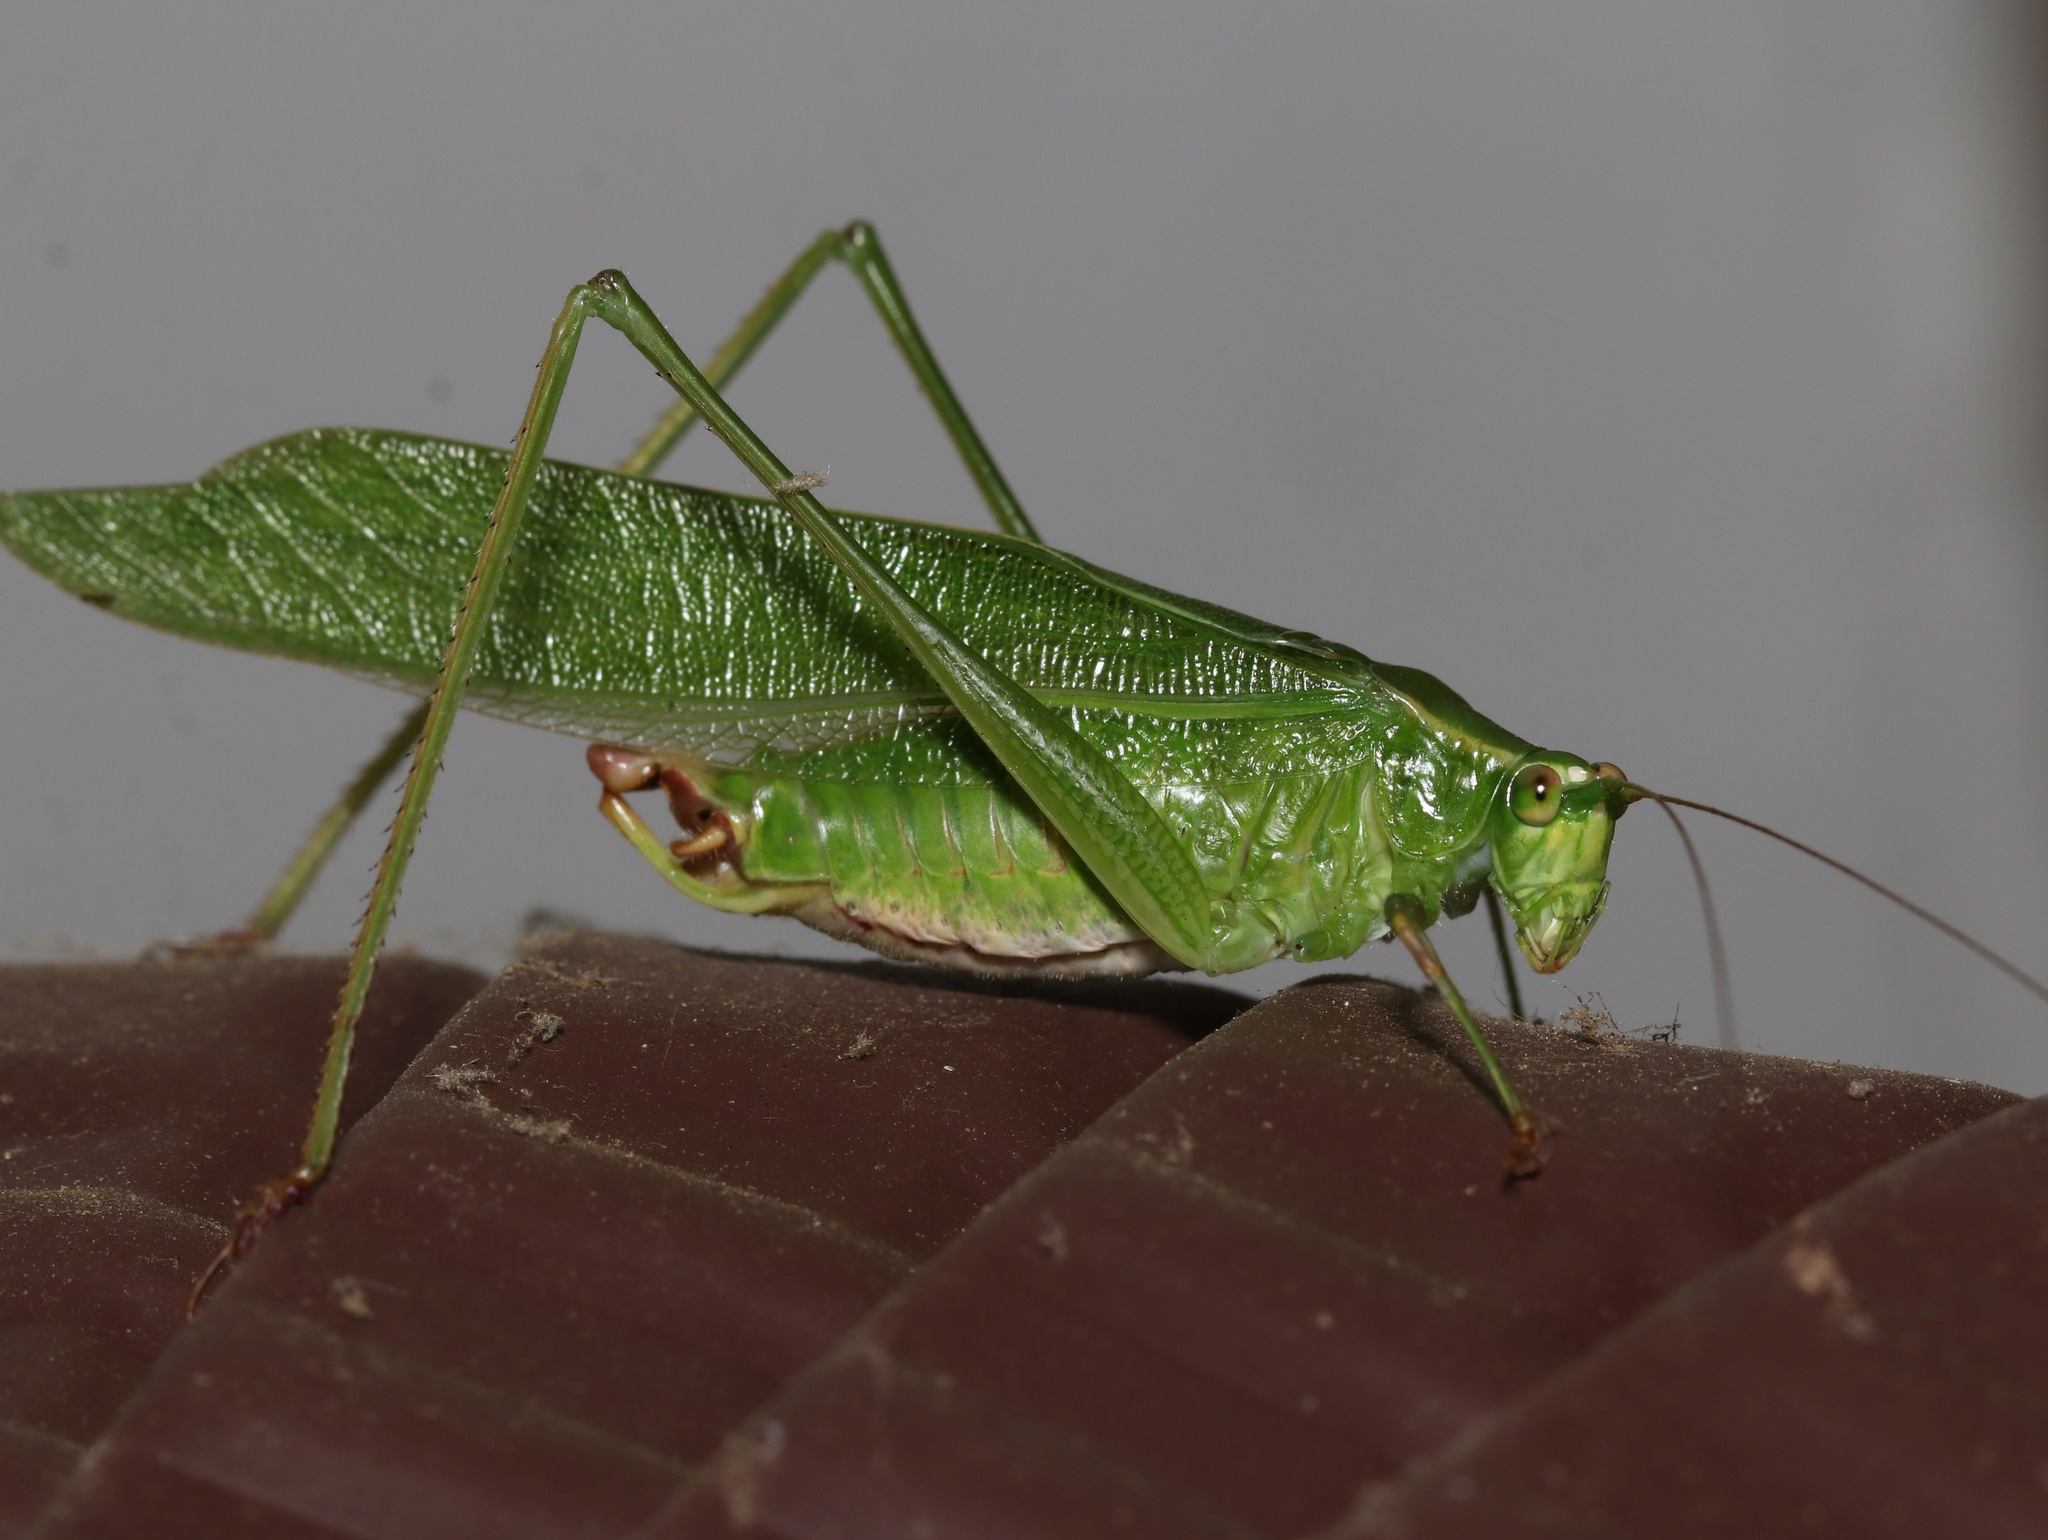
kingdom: Animalia
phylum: Arthropoda
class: Insecta
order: Orthoptera
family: Tettigoniidae
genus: Scudderia
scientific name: Scudderia furcata
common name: Fork-tailed bush katydid
